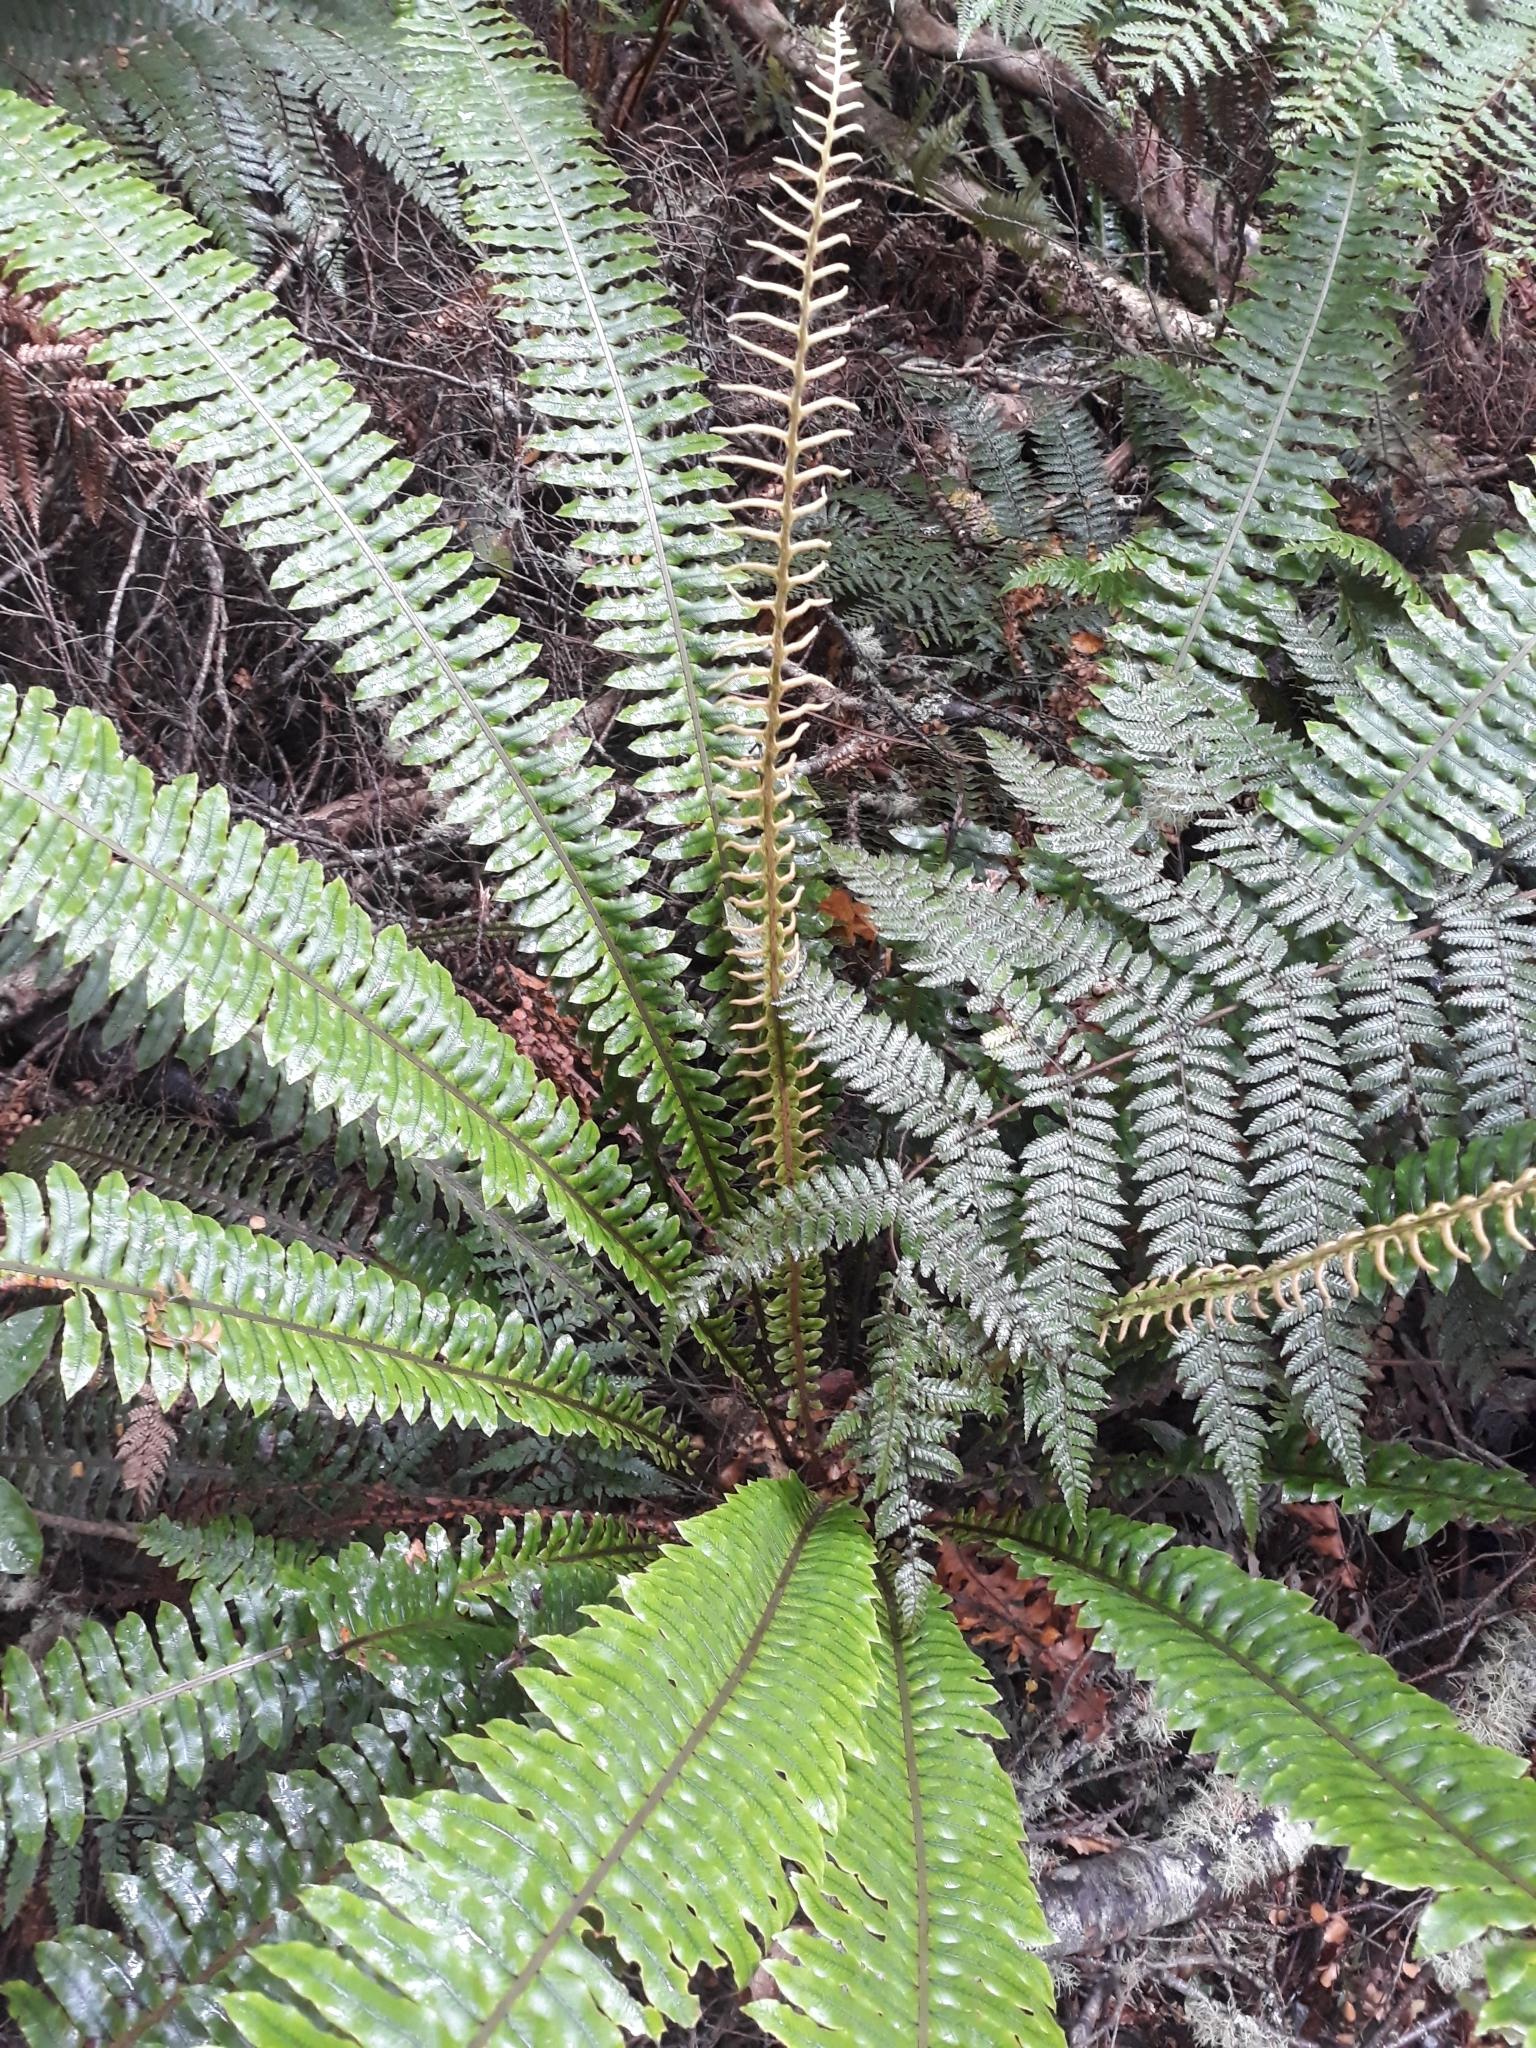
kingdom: Plantae
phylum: Tracheophyta
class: Polypodiopsida
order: Polypodiales
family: Blechnaceae
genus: Lomaria
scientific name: Lomaria discolor
